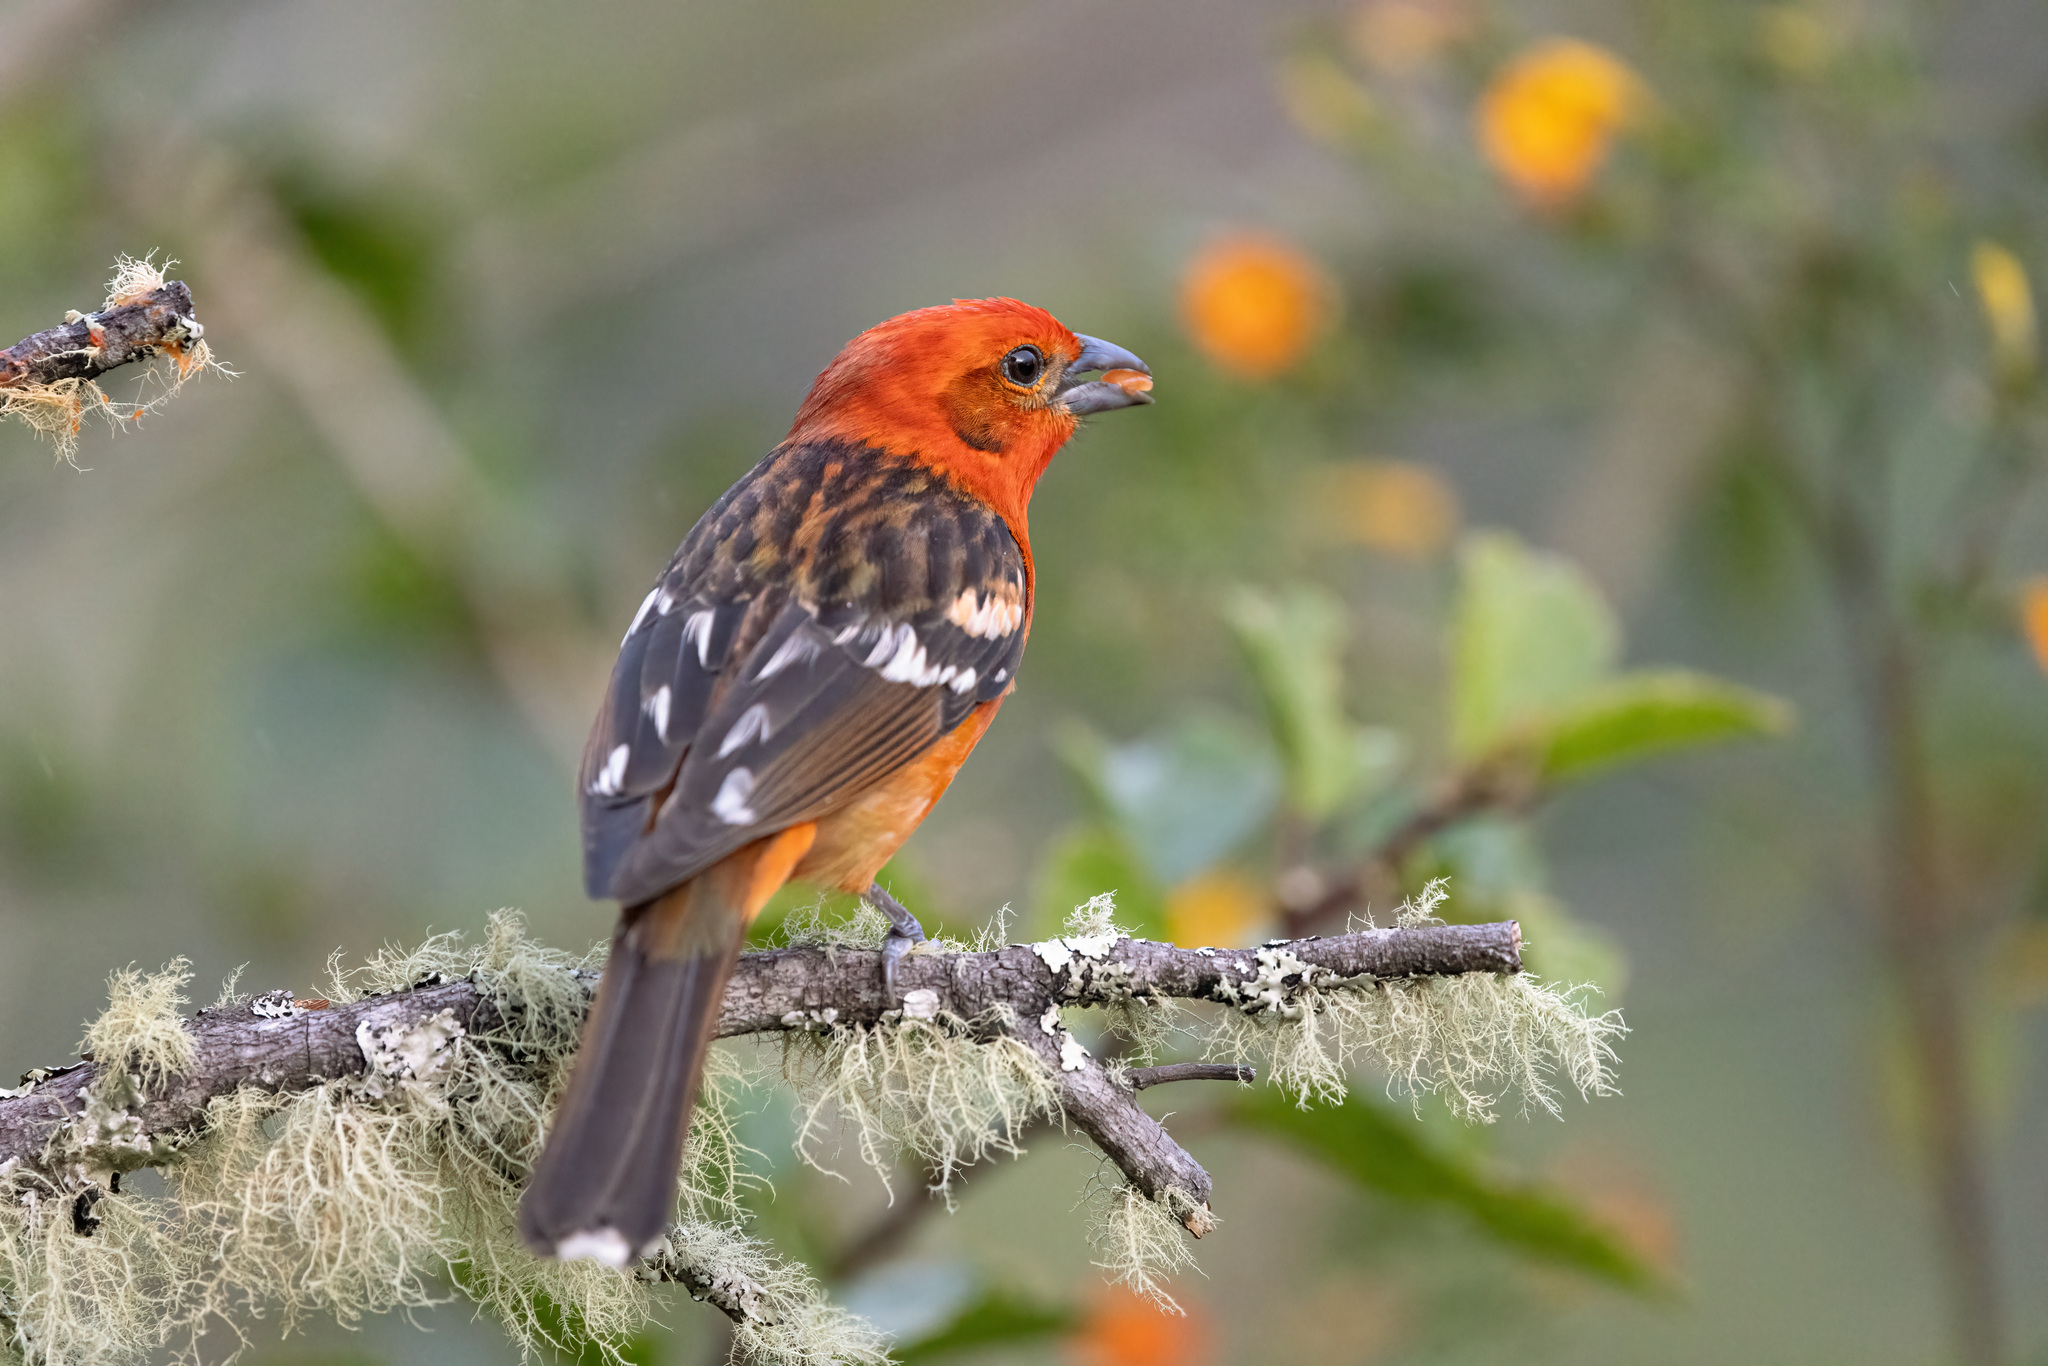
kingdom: Animalia
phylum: Chordata
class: Aves
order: Passeriformes
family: Cardinalidae
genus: Piranga
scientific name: Piranga bidentata
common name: Flame-colored tanager
